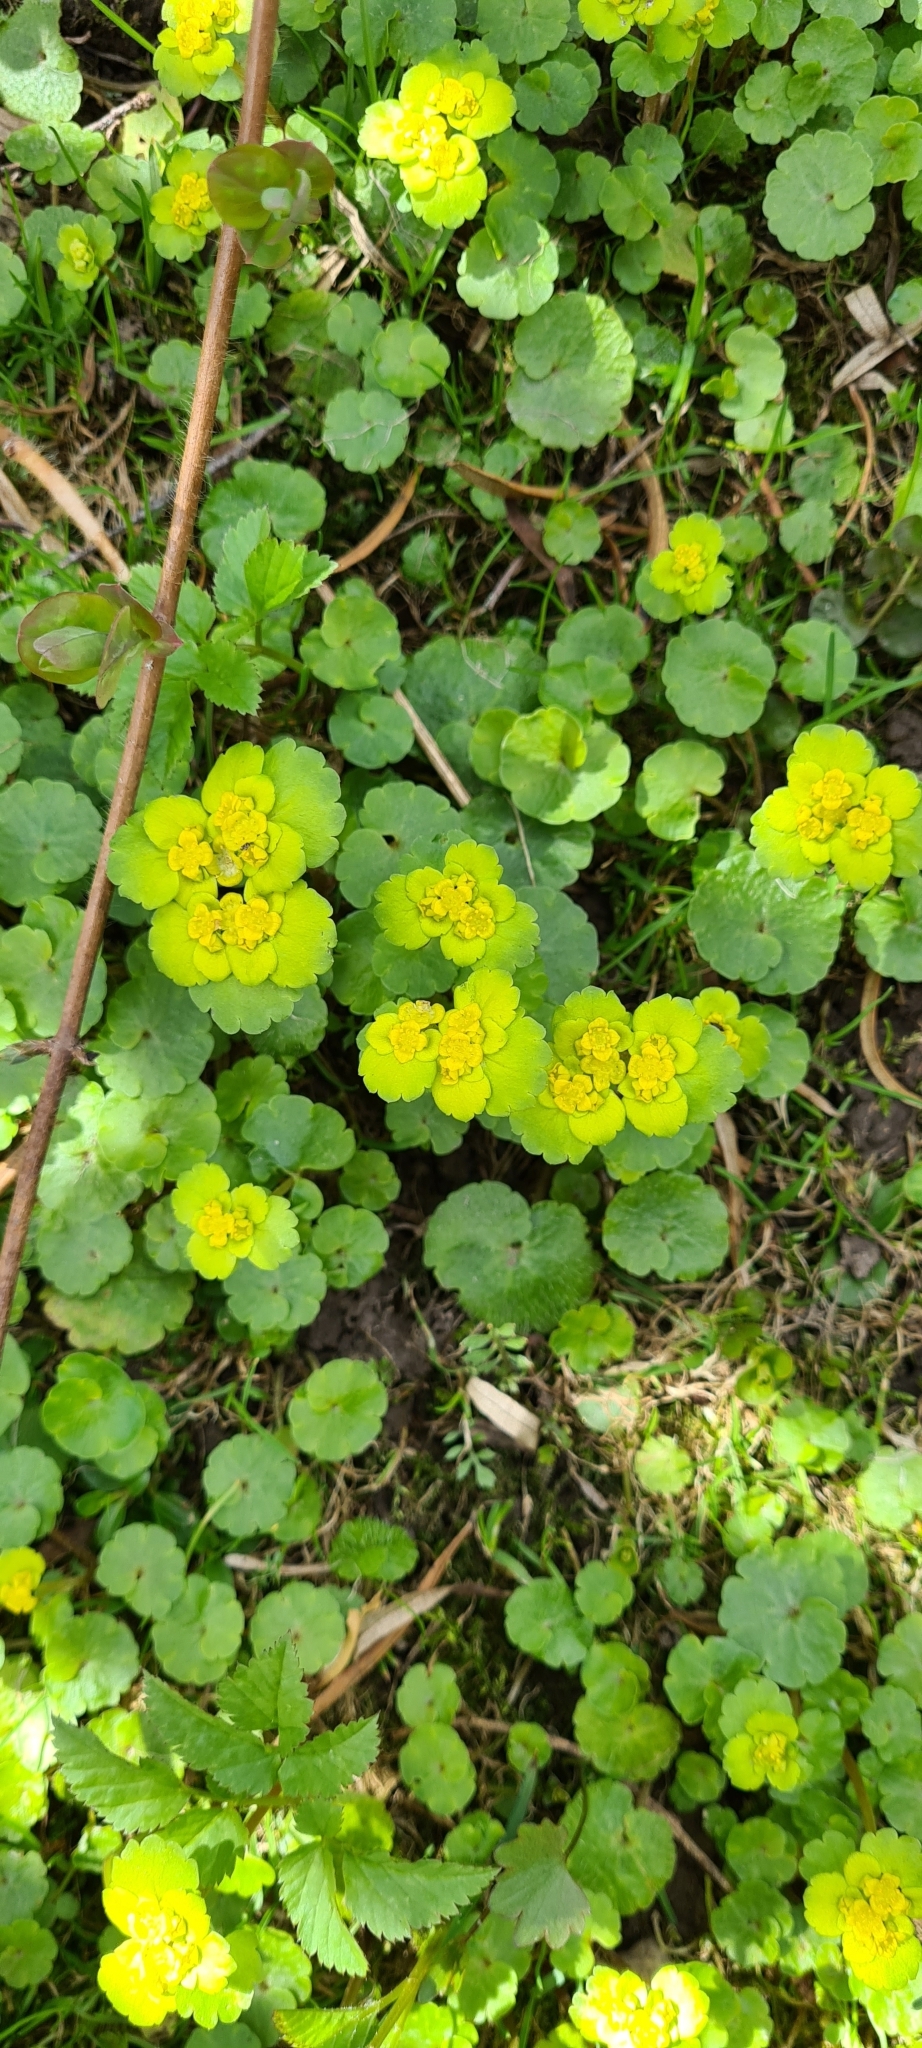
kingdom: Plantae
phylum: Tracheophyta
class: Magnoliopsida
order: Saxifragales
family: Saxifragaceae
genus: Chrysosplenium
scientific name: Chrysosplenium alternifolium
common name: Alternate-leaved golden-saxifrage
